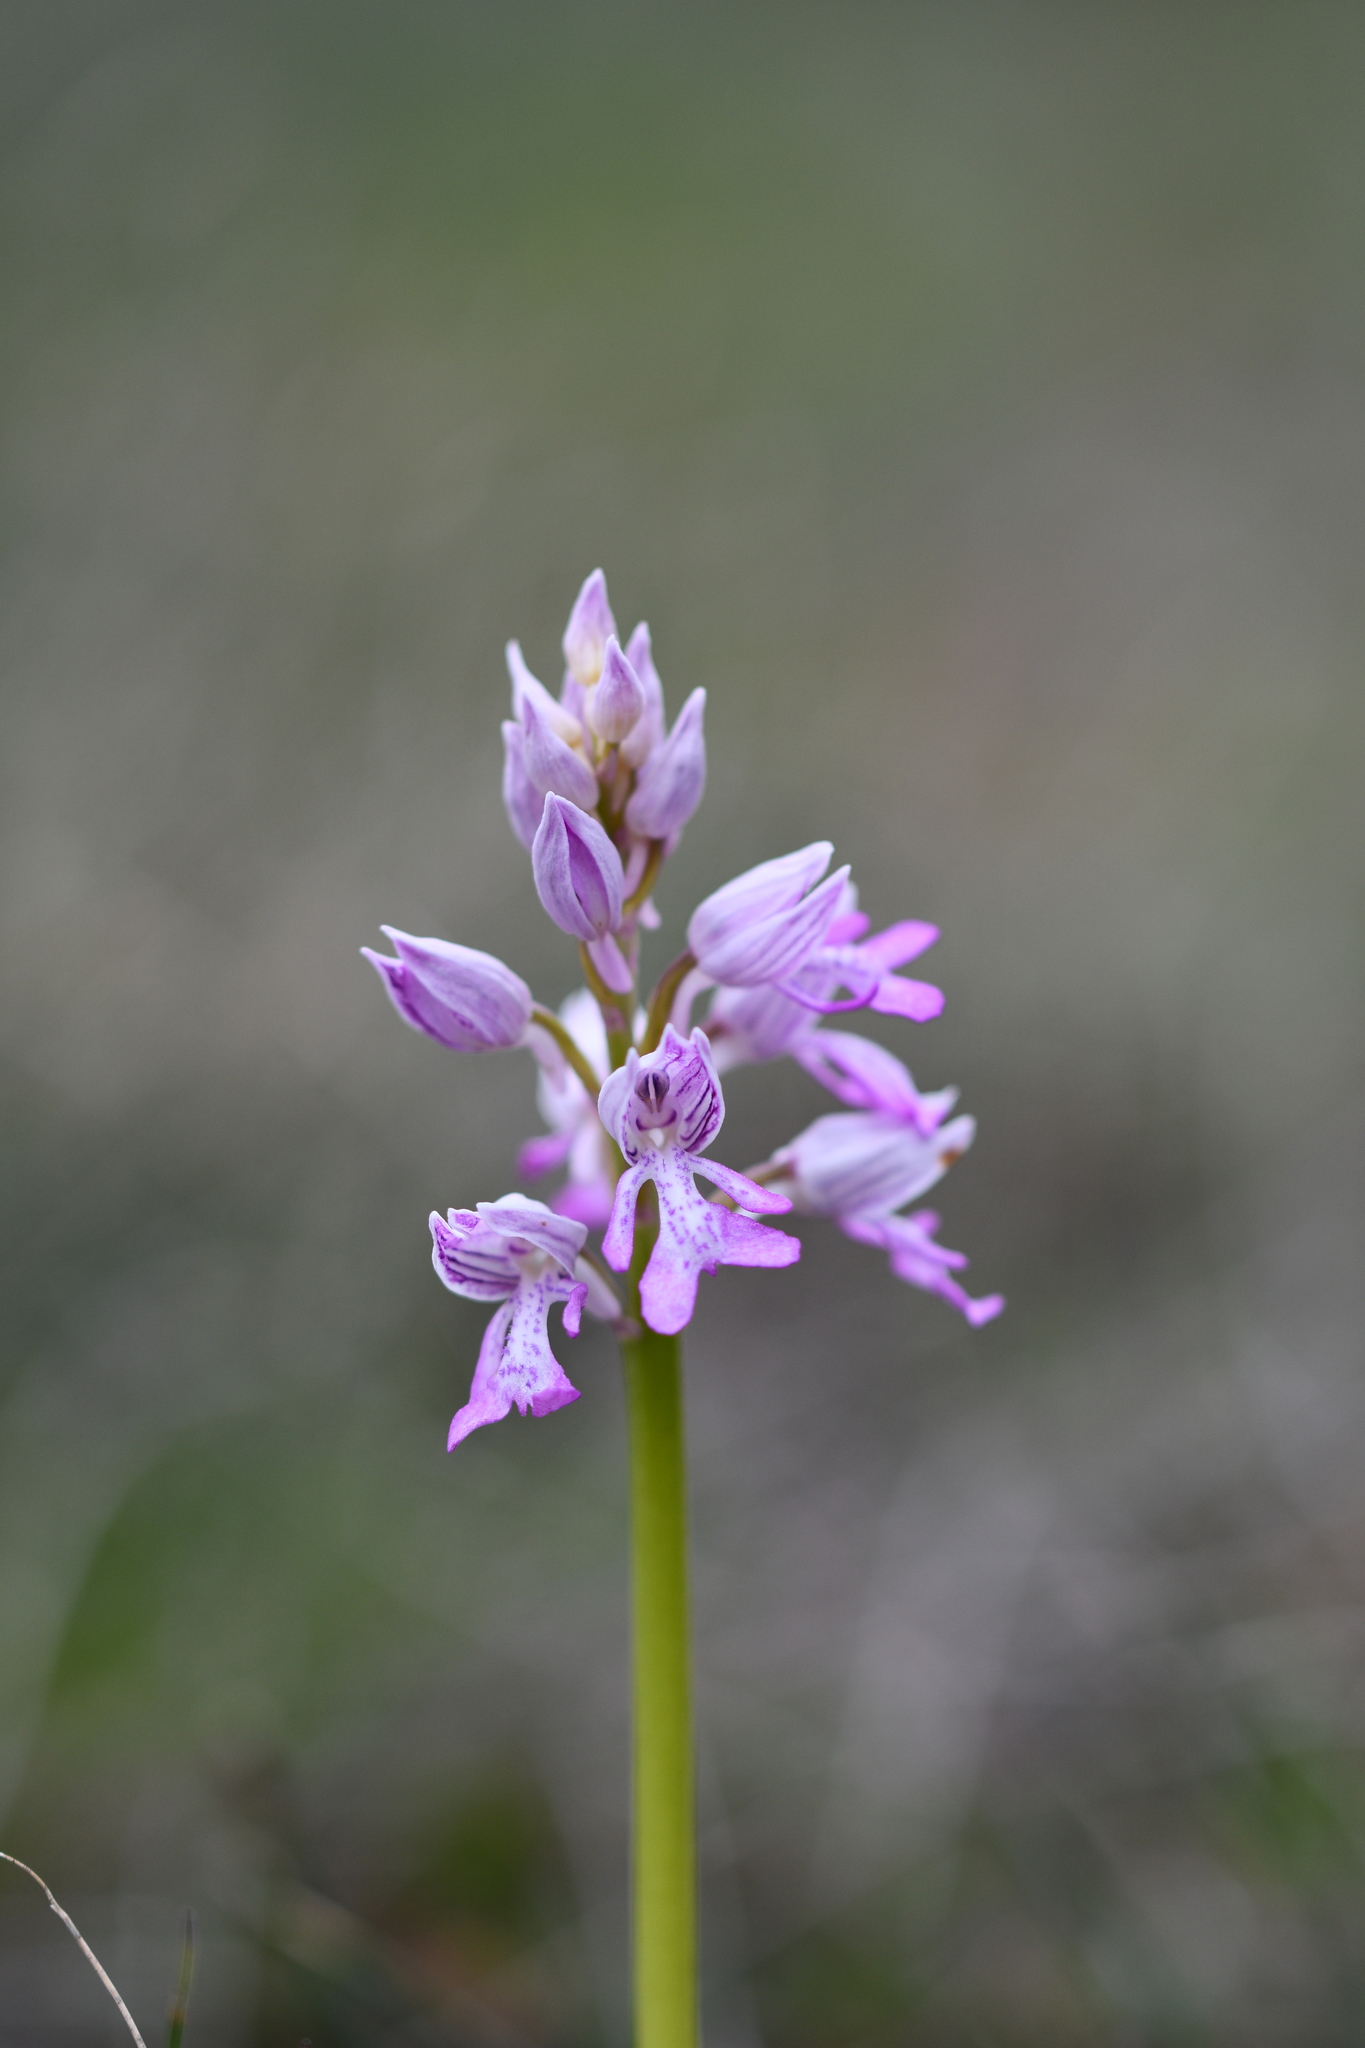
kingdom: Plantae
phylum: Tracheophyta
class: Liliopsida
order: Asparagales
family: Orchidaceae
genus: Orchis
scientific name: Orchis militaris
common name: Military orchid
